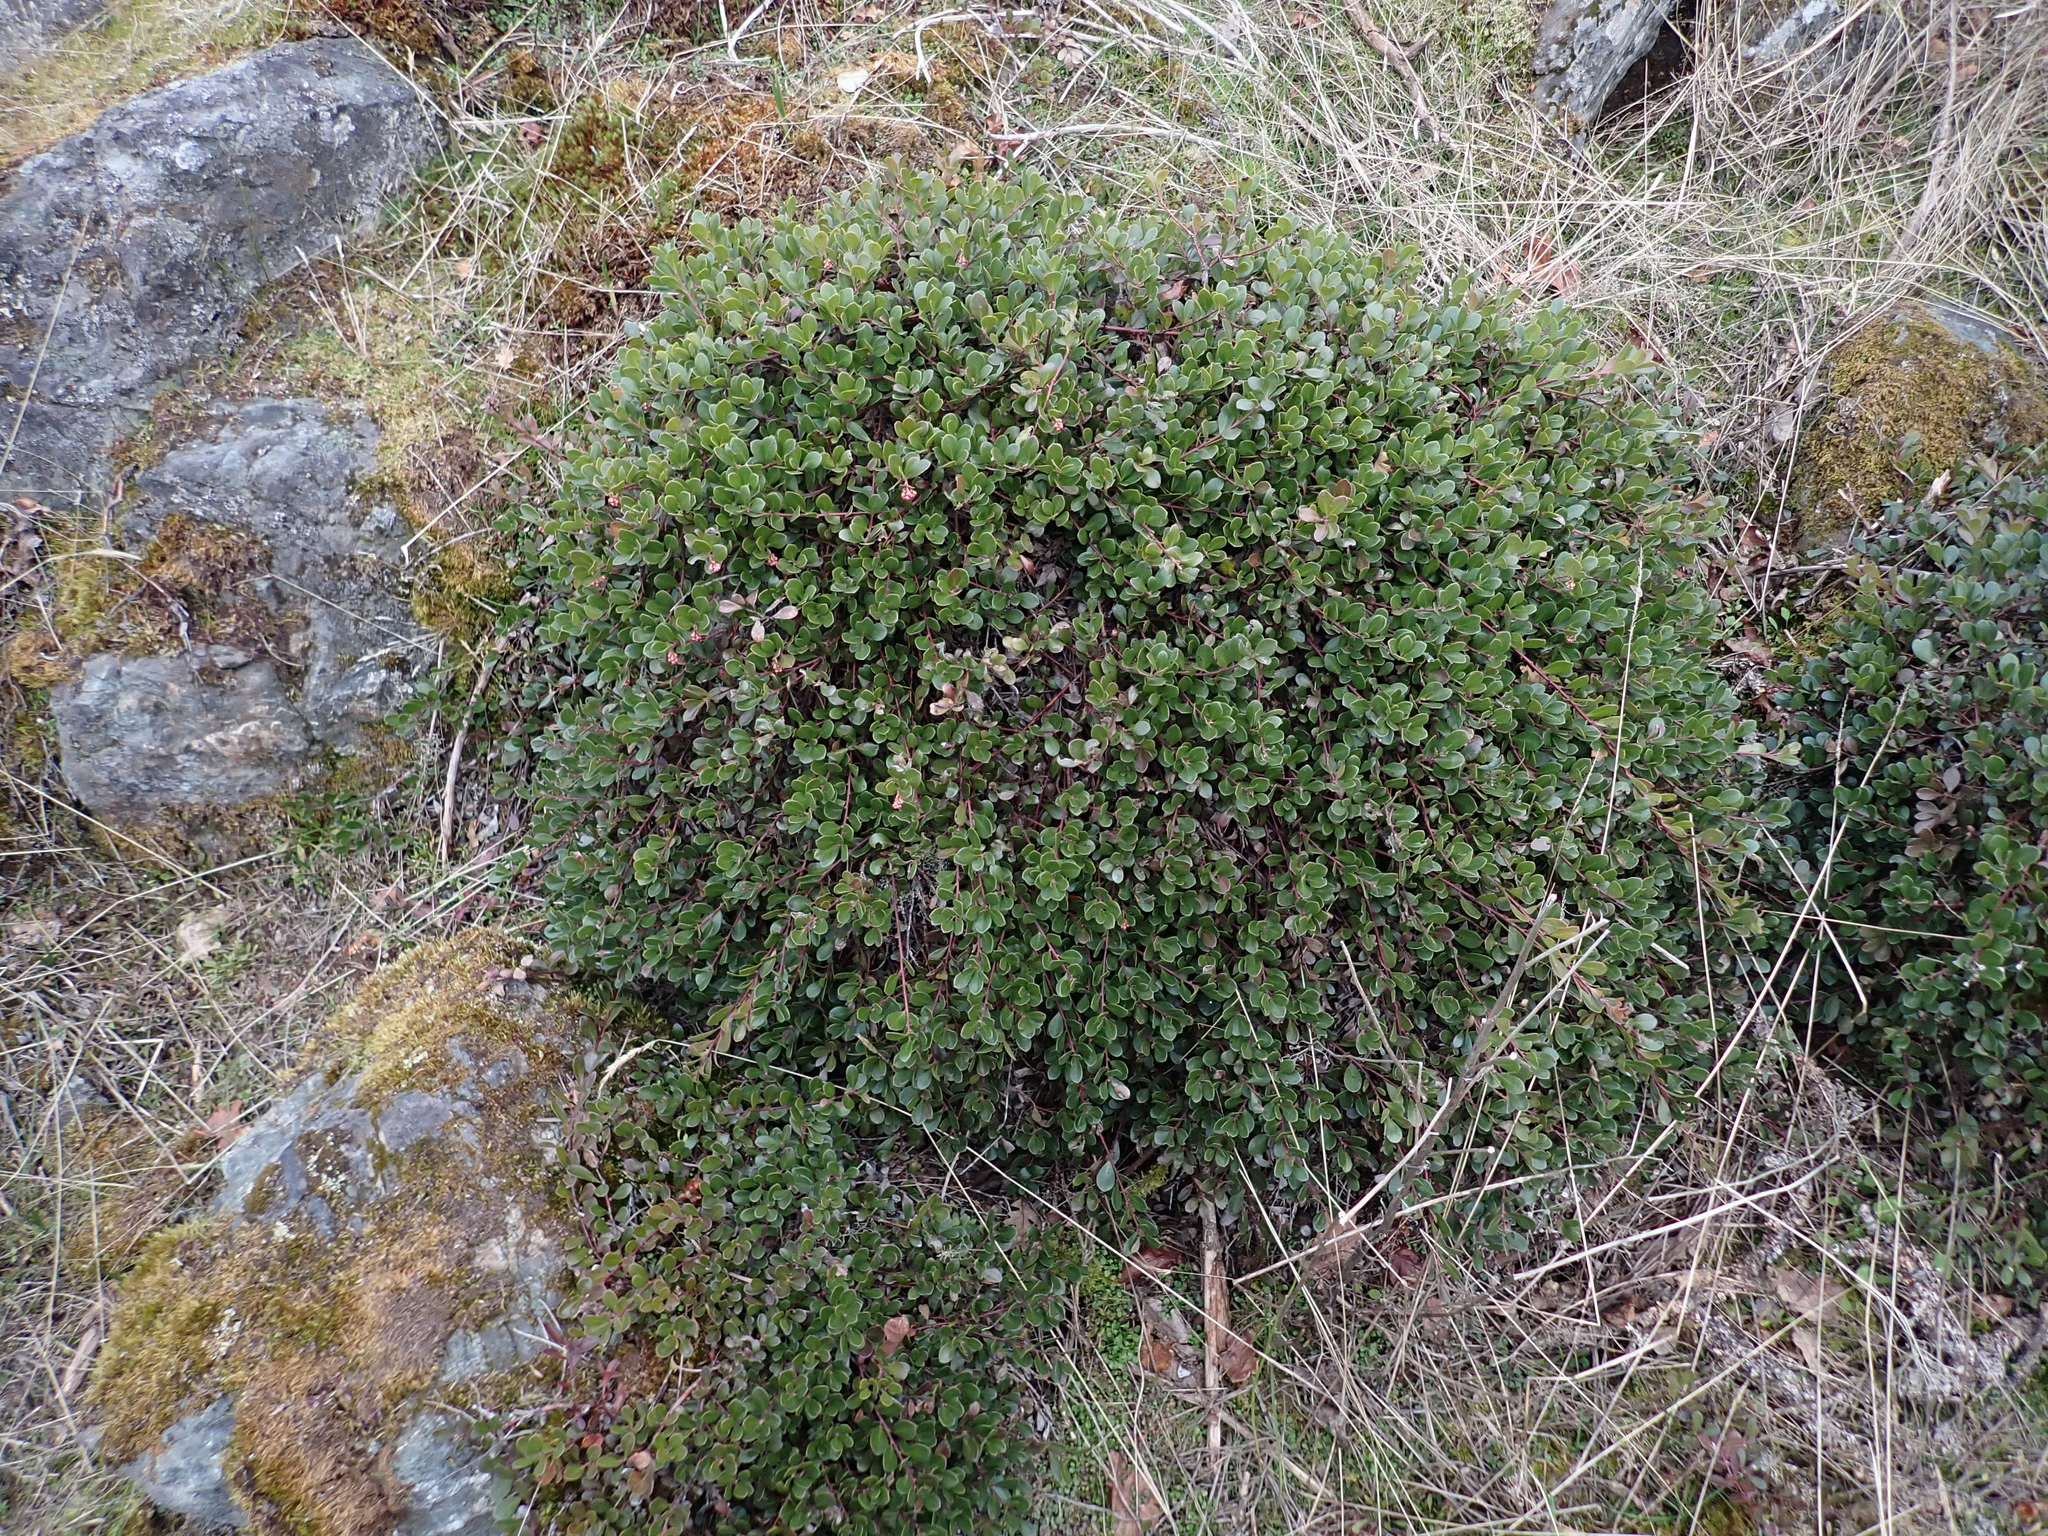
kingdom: Plantae
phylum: Tracheophyta
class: Magnoliopsida
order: Ericales
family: Ericaceae
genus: Arctostaphylos
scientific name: Arctostaphylos uva-ursi
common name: Bearberry
